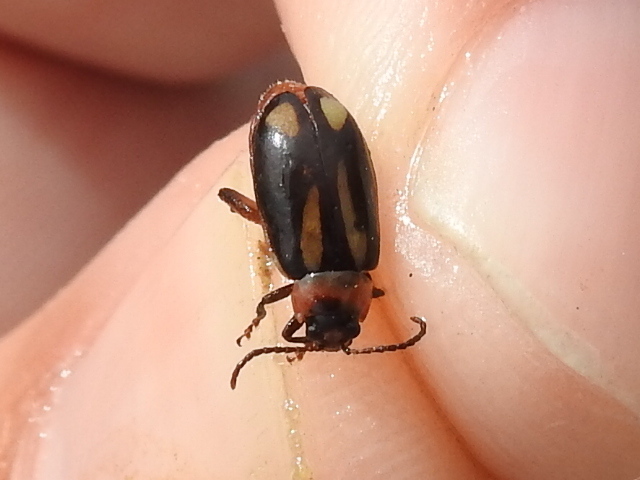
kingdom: Animalia
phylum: Arthropoda
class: Insecta
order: Coleoptera
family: Chrysomelidae
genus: Kuschelina
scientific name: Kuschelina laeta
